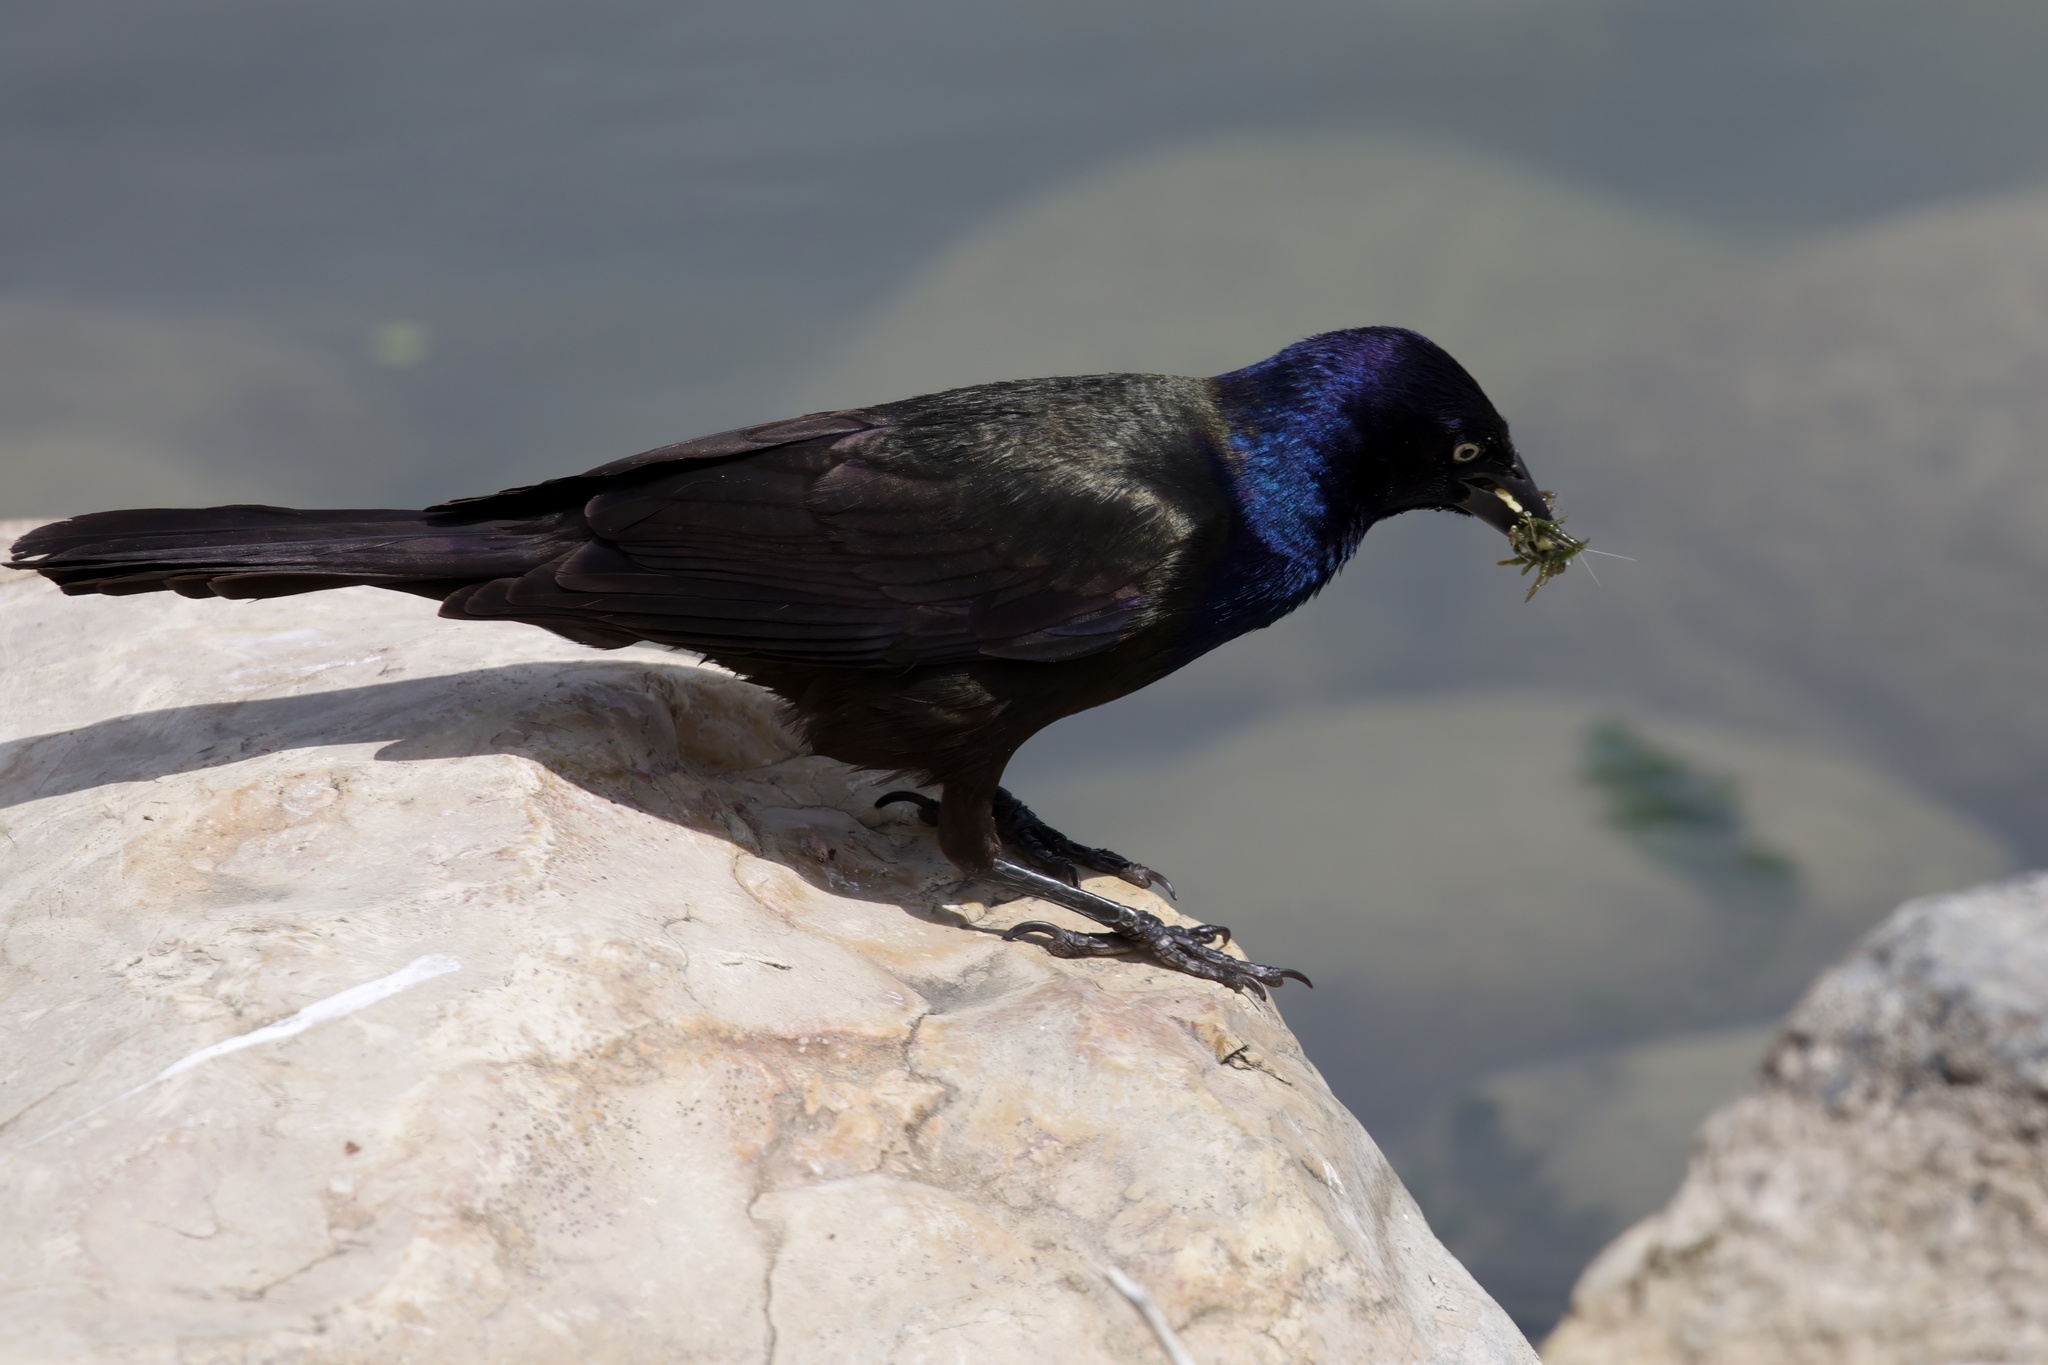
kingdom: Animalia
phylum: Chordata
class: Aves
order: Passeriformes
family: Icteridae
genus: Quiscalus
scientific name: Quiscalus quiscula
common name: Common grackle
